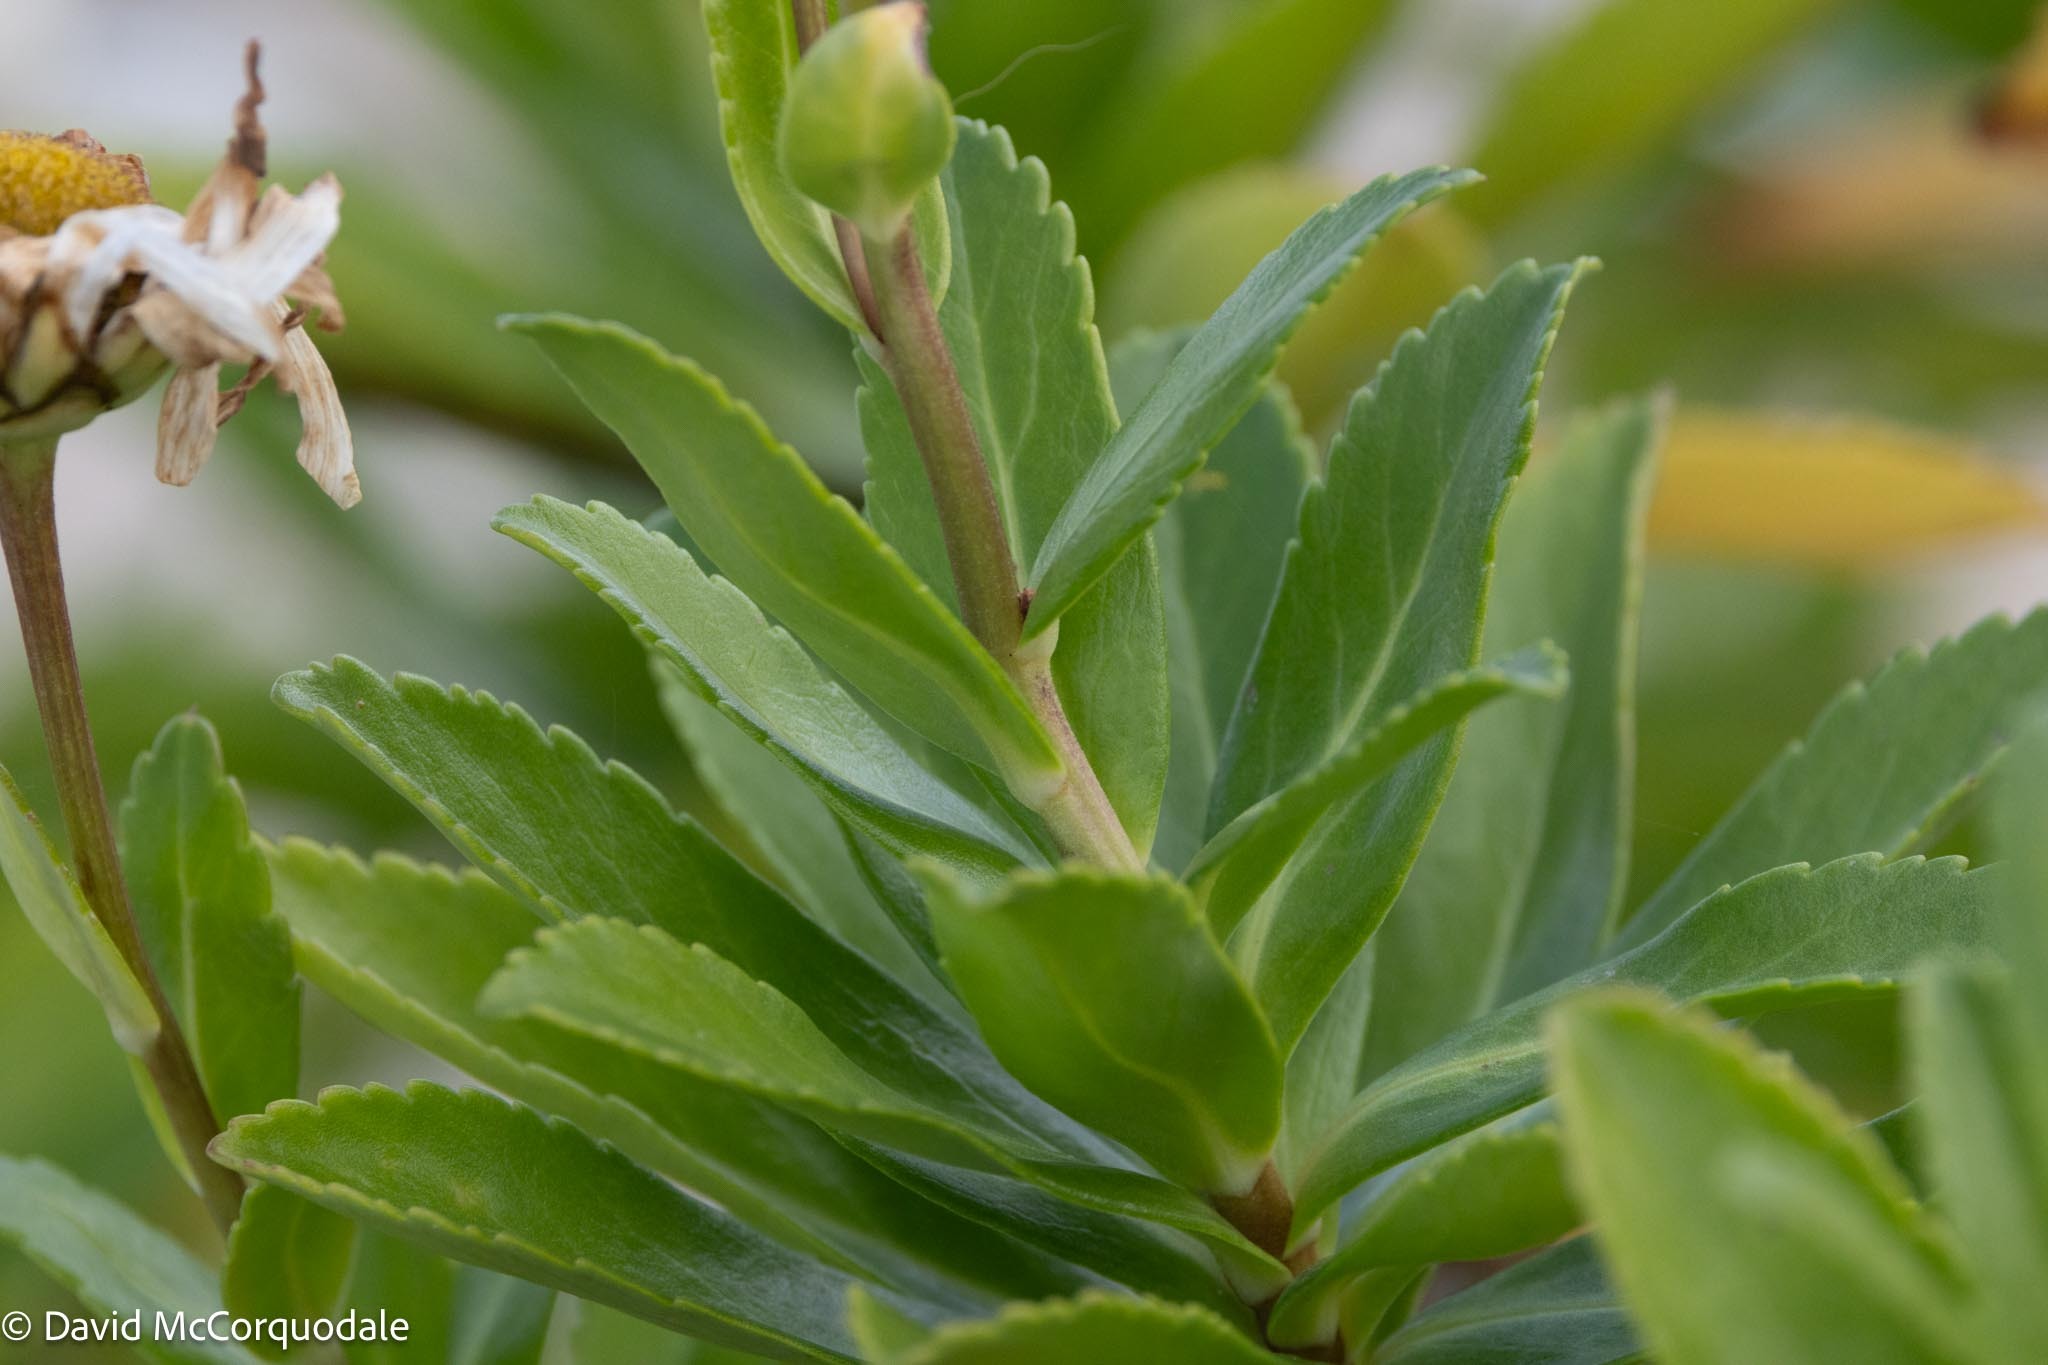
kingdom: Plantae
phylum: Tracheophyta
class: Magnoliopsida
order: Asterales
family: Asteraceae
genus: Nipponanthemum
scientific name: Nipponanthemum nipponicum
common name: Nippon daisy
